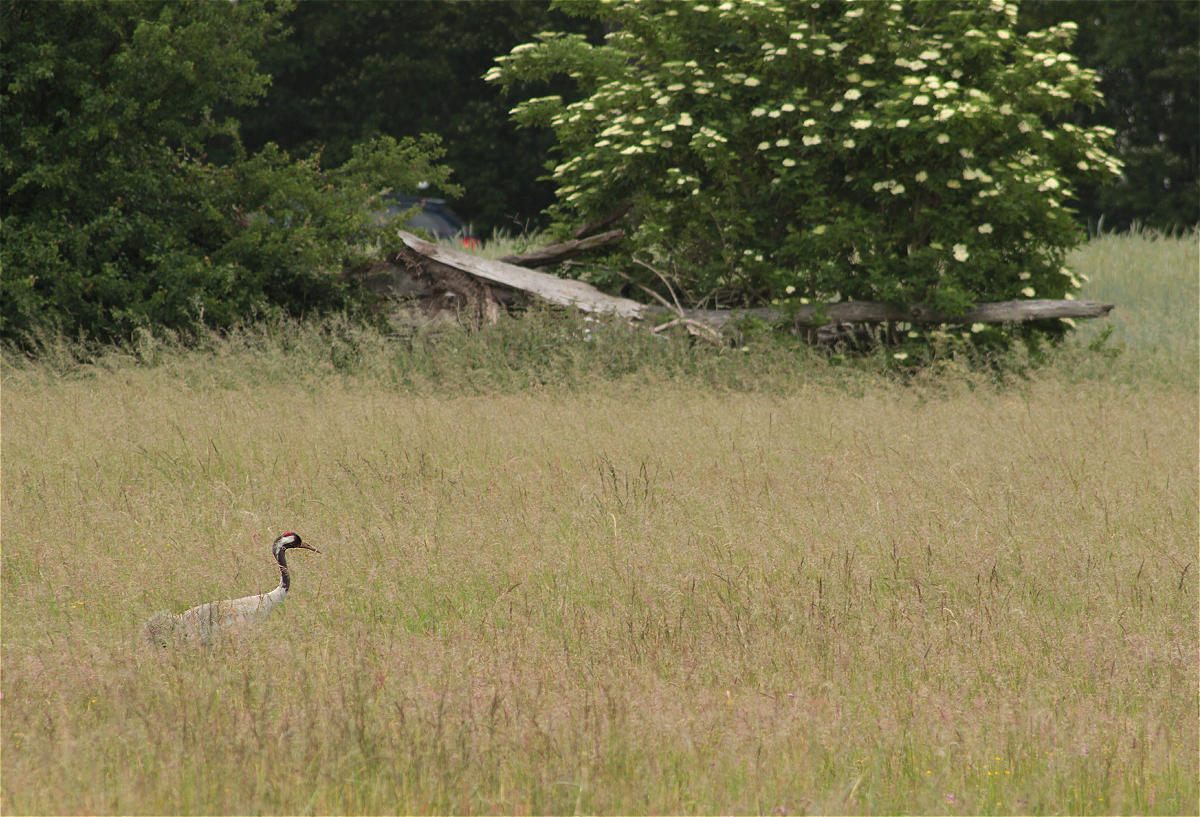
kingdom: Animalia
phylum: Chordata
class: Aves
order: Gruiformes
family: Gruidae
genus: Grus
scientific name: Grus grus
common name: Common crane
